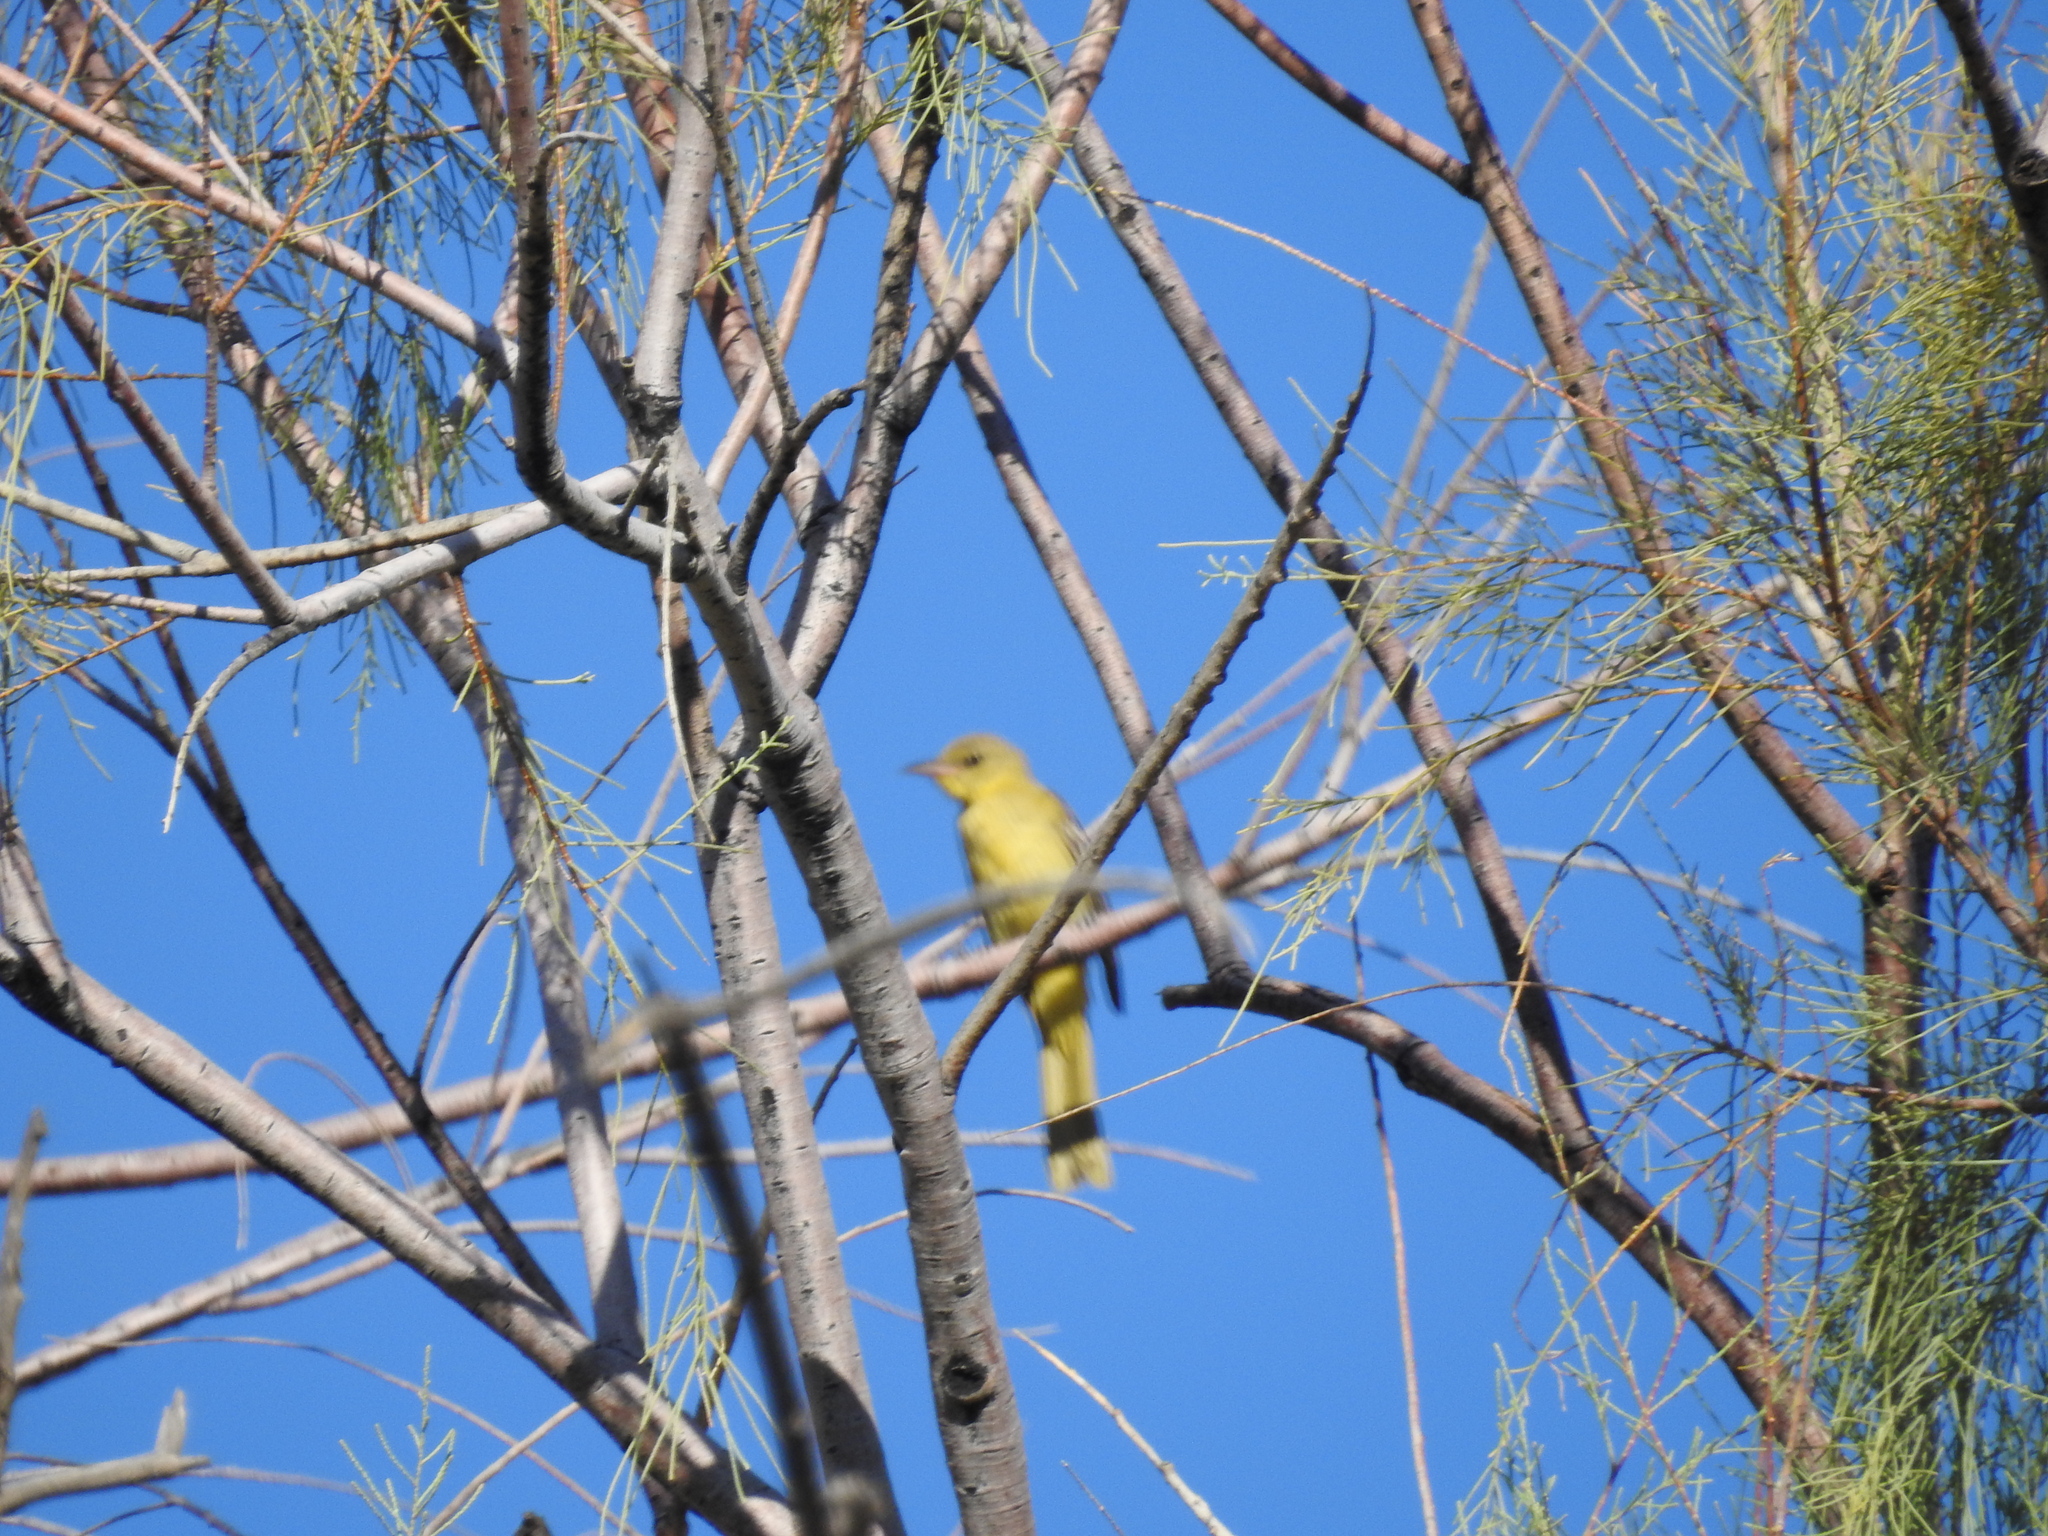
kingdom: Animalia
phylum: Chordata
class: Aves
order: Passeriformes
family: Cardinalidae
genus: Piranga
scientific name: Piranga rubra
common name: Summer tanager
